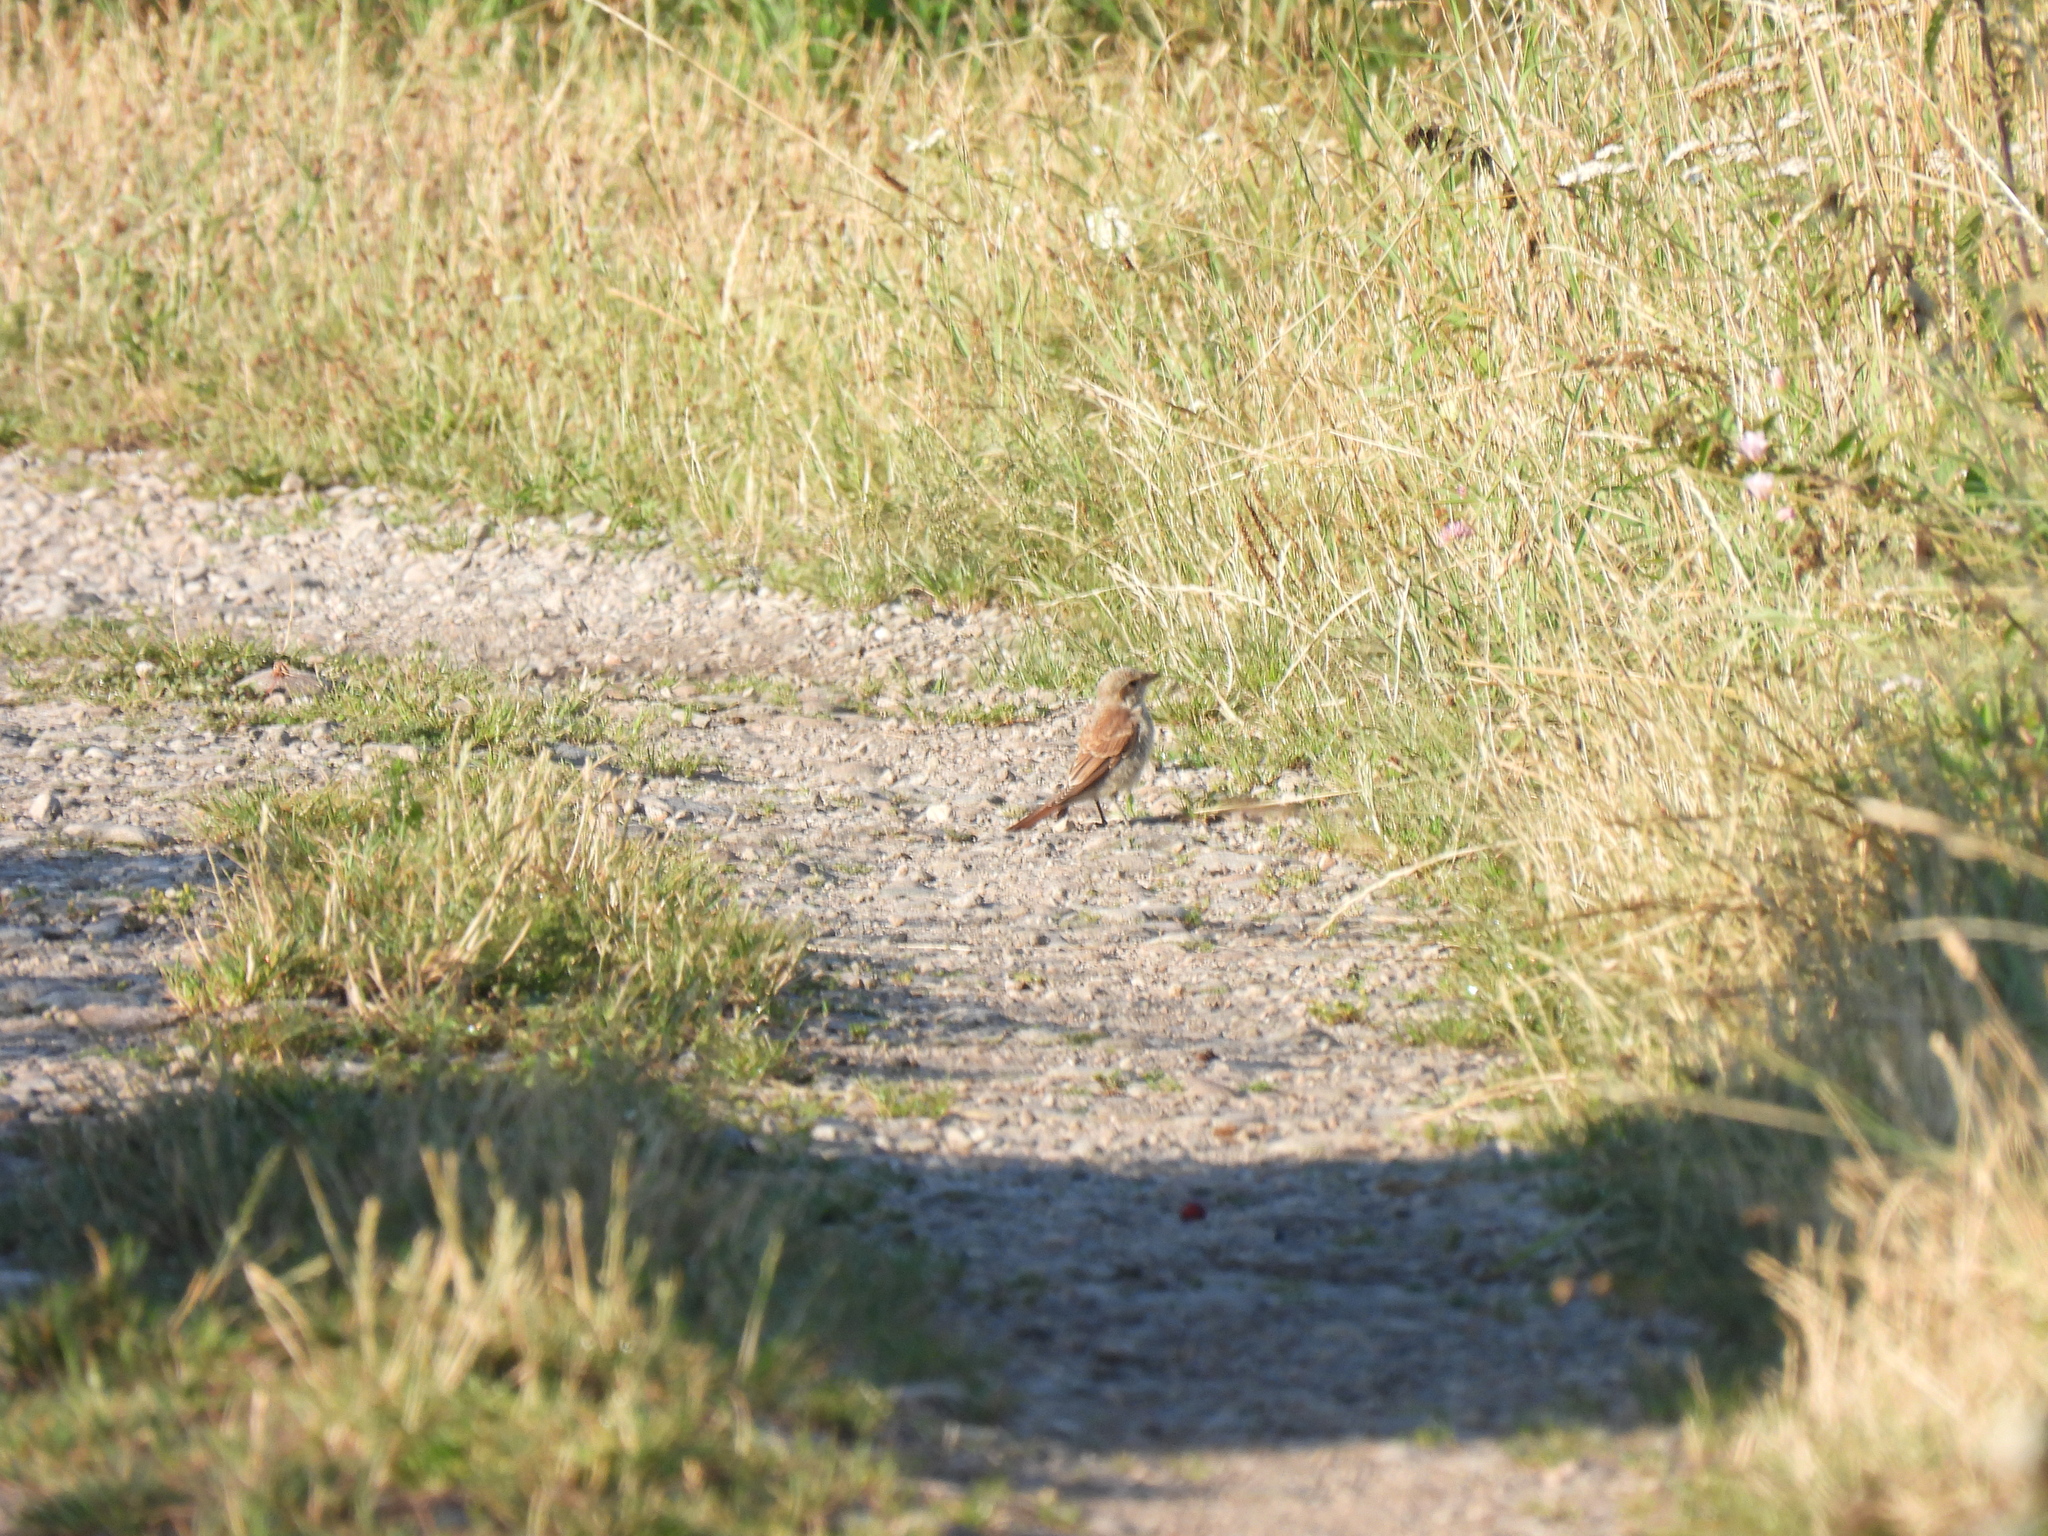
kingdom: Animalia
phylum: Chordata
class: Aves
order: Passeriformes
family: Laniidae
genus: Lanius
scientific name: Lanius collurio
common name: Red-backed shrike
